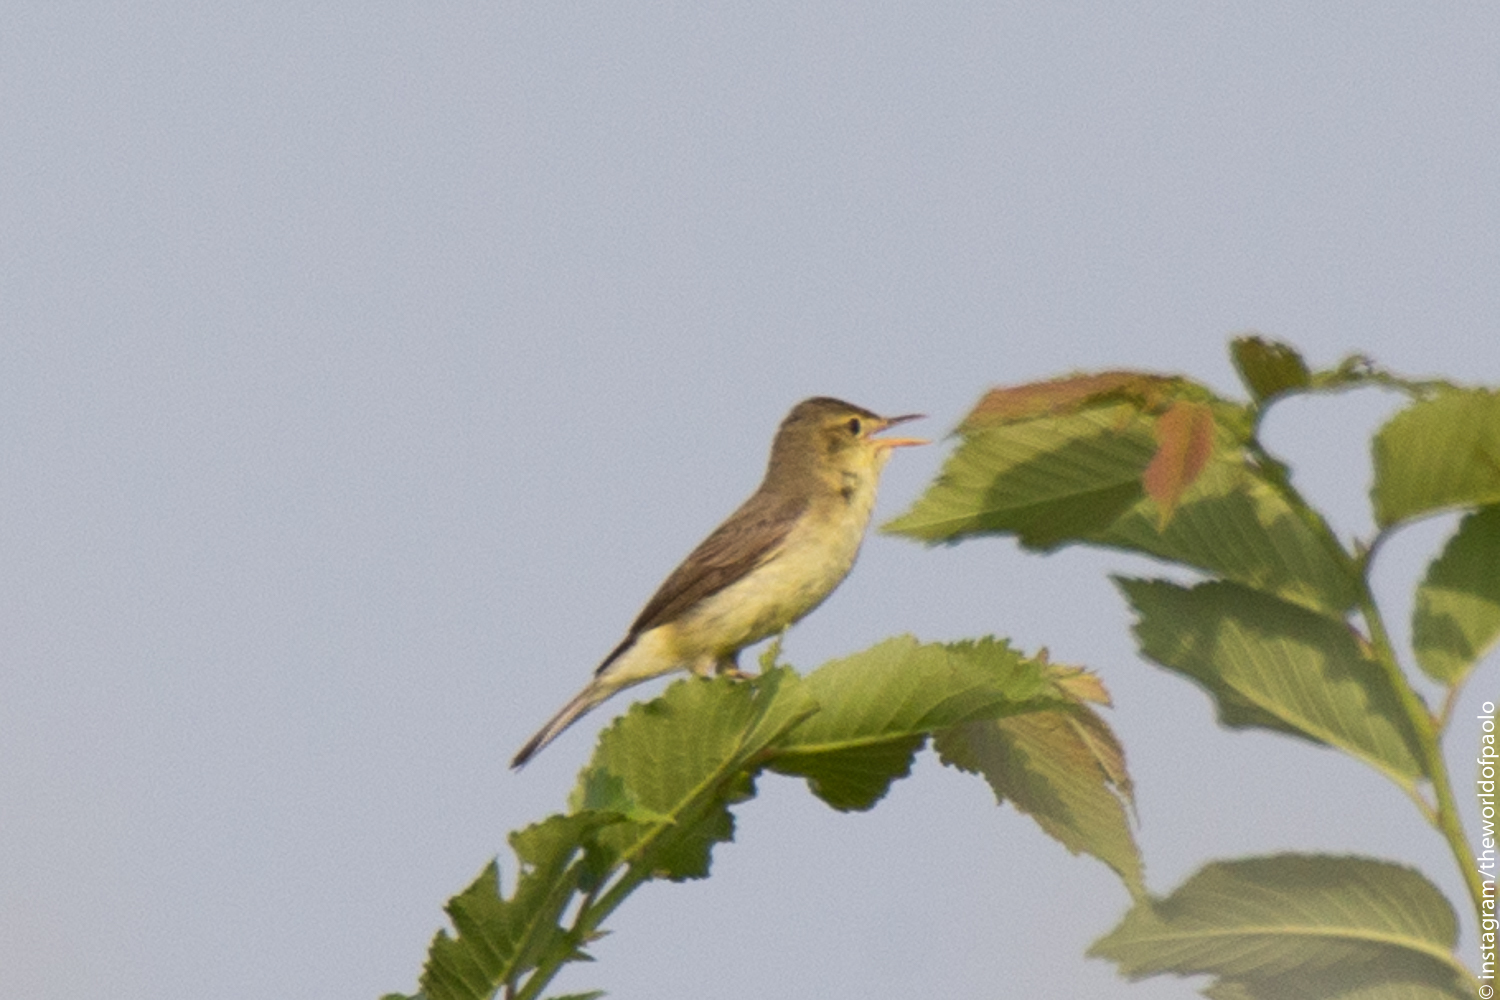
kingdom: Animalia
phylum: Chordata
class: Aves
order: Passeriformes
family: Acrocephalidae
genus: Hippolais
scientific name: Hippolais polyglotta
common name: Melodious warbler
